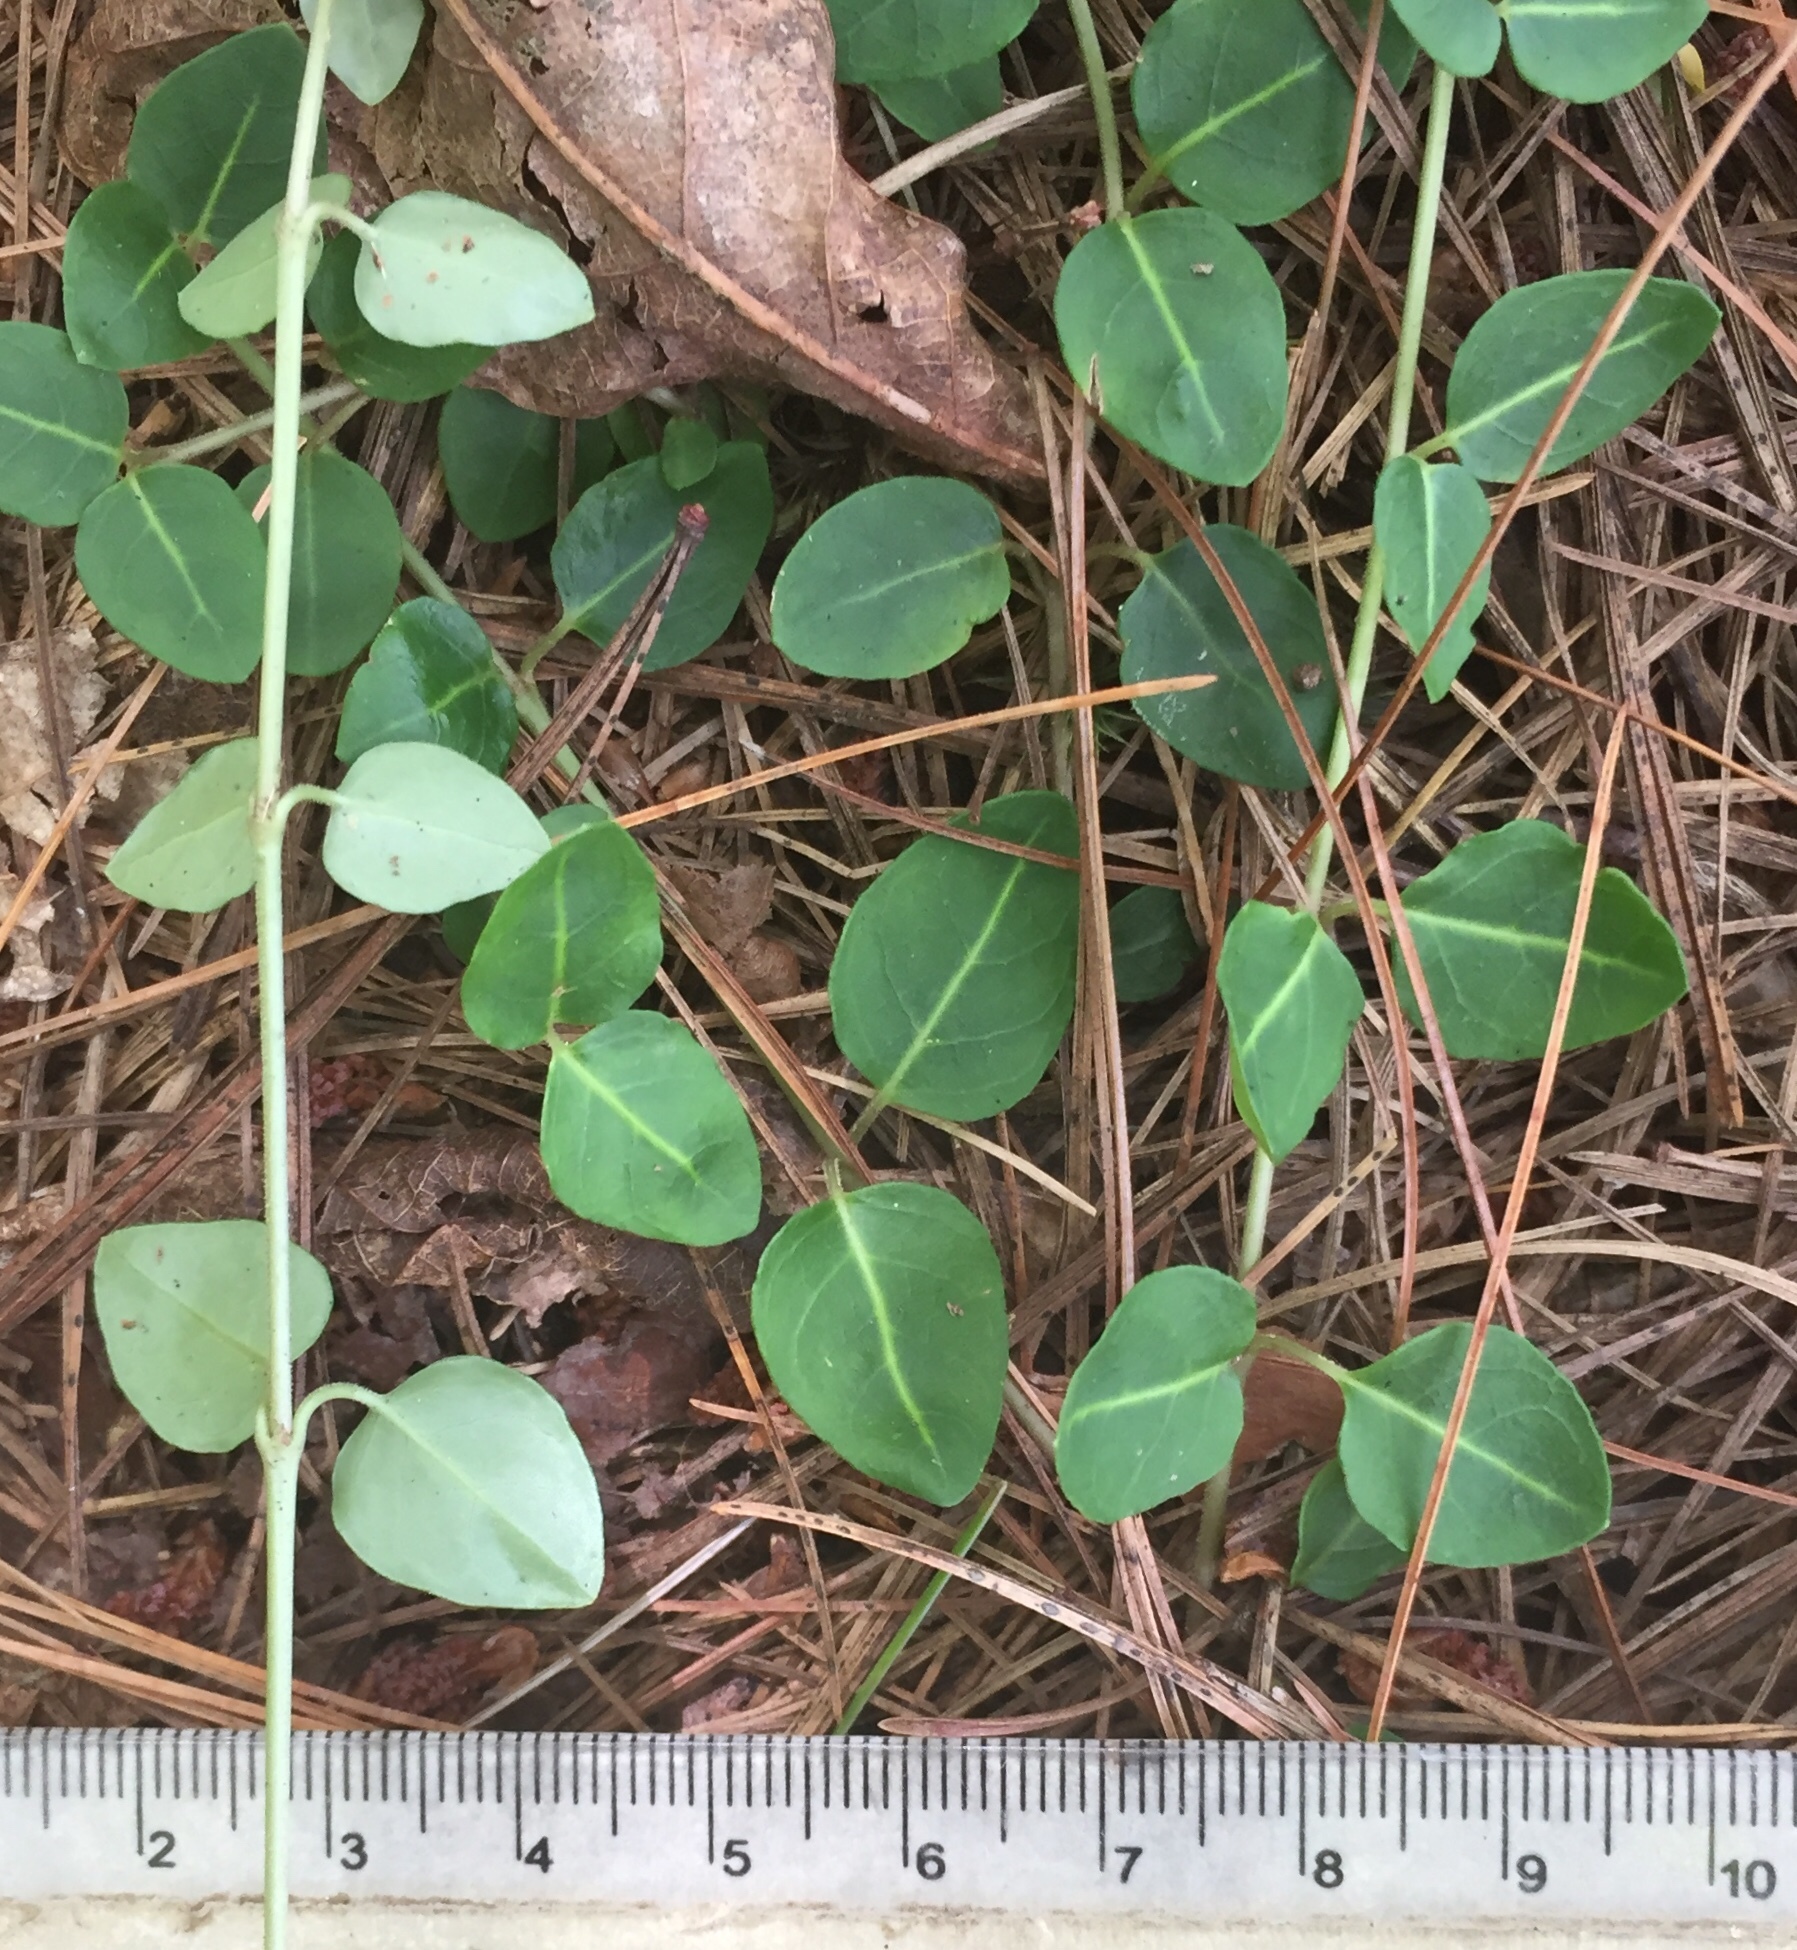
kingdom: Plantae
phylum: Tracheophyta
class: Magnoliopsida
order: Gentianales
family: Rubiaceae
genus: Mitchella
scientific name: Mitchella repens
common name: Partridge-berry
